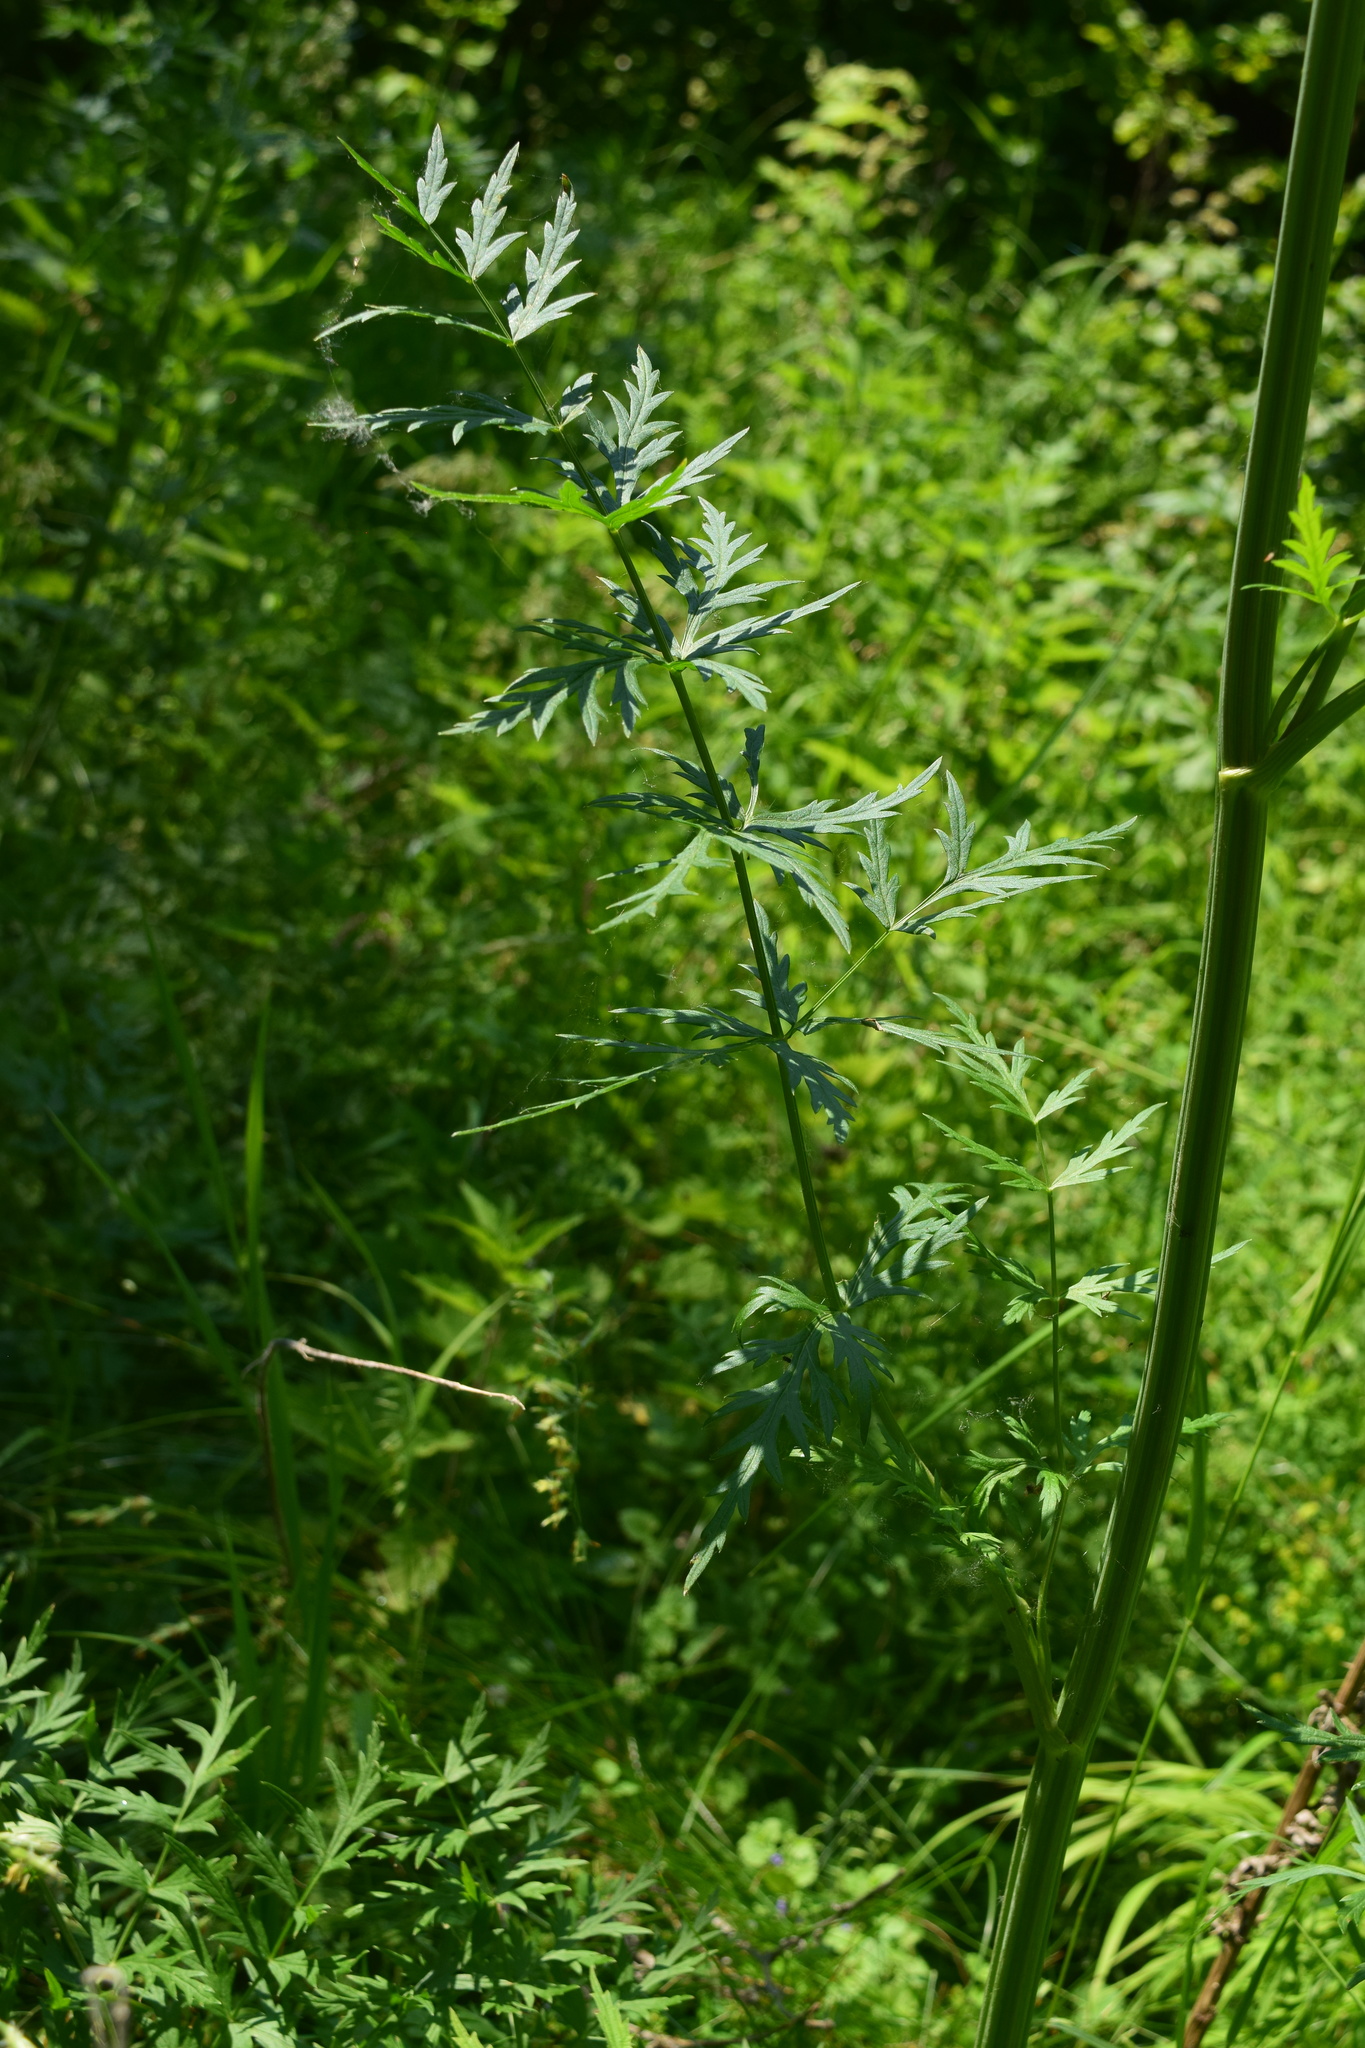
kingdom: Plantae
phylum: Tracheophyta
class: Magnoliopsida
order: Apiales
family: Apiaceae
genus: Seseli
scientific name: Seseli libanotis
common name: Mooncarrot
